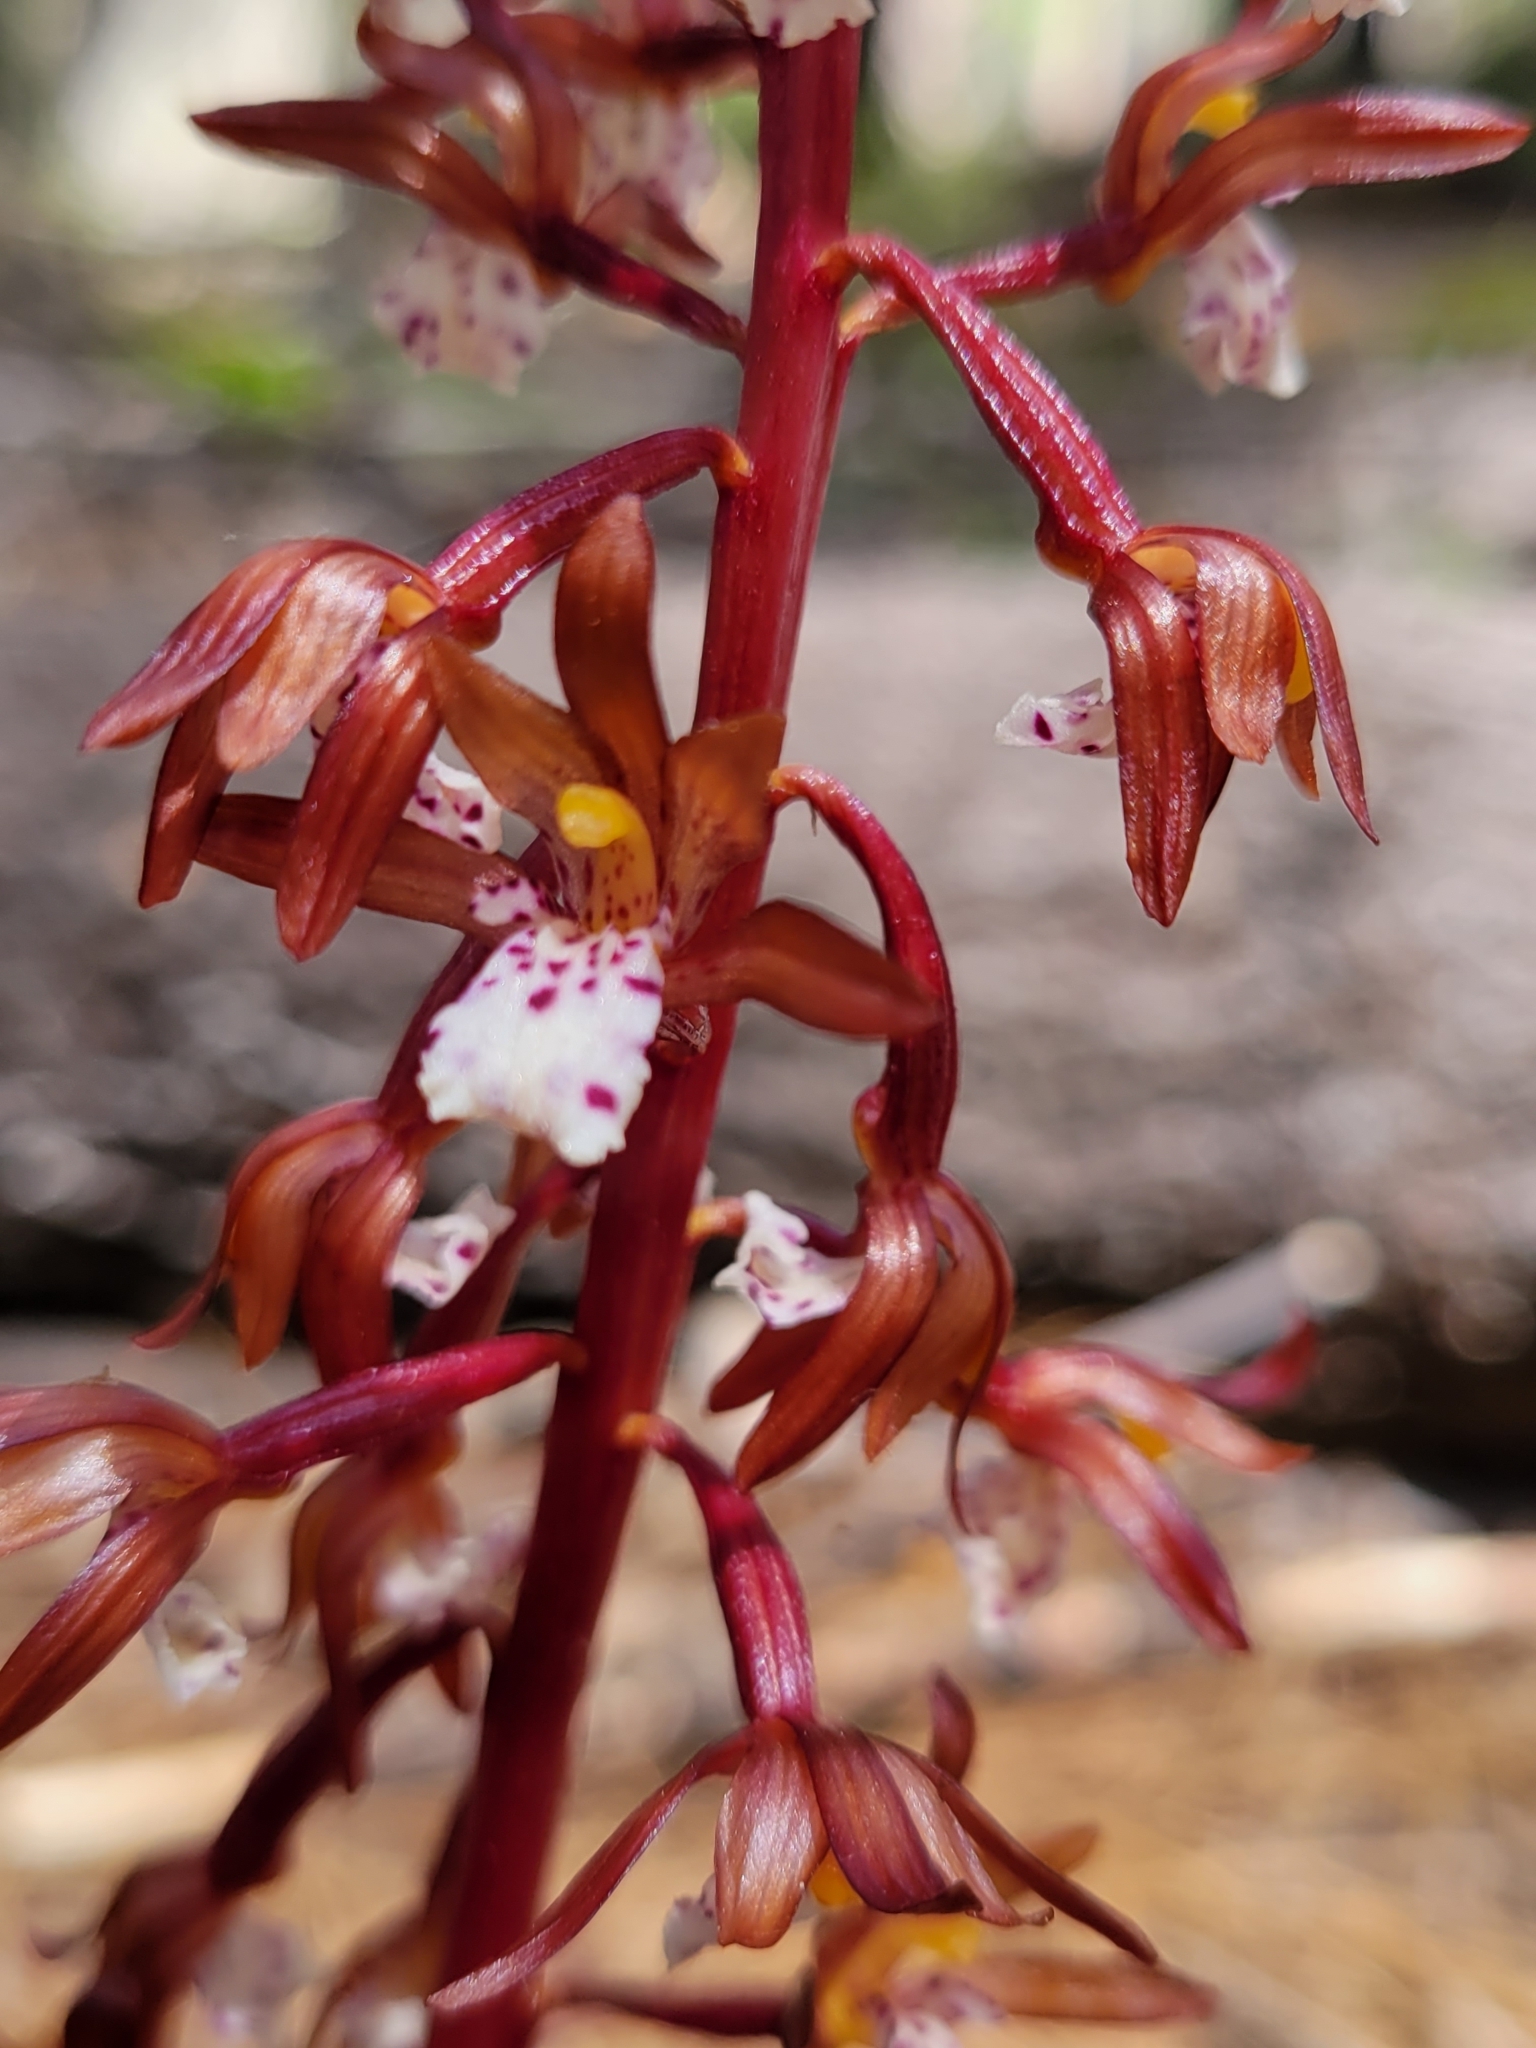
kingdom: Plantae
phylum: Tracheophyta
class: Liliopsida
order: Asparagales
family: Orchidaceae
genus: Corallorhiza
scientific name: Corallorhiza maculata
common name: Spotted coralroot
